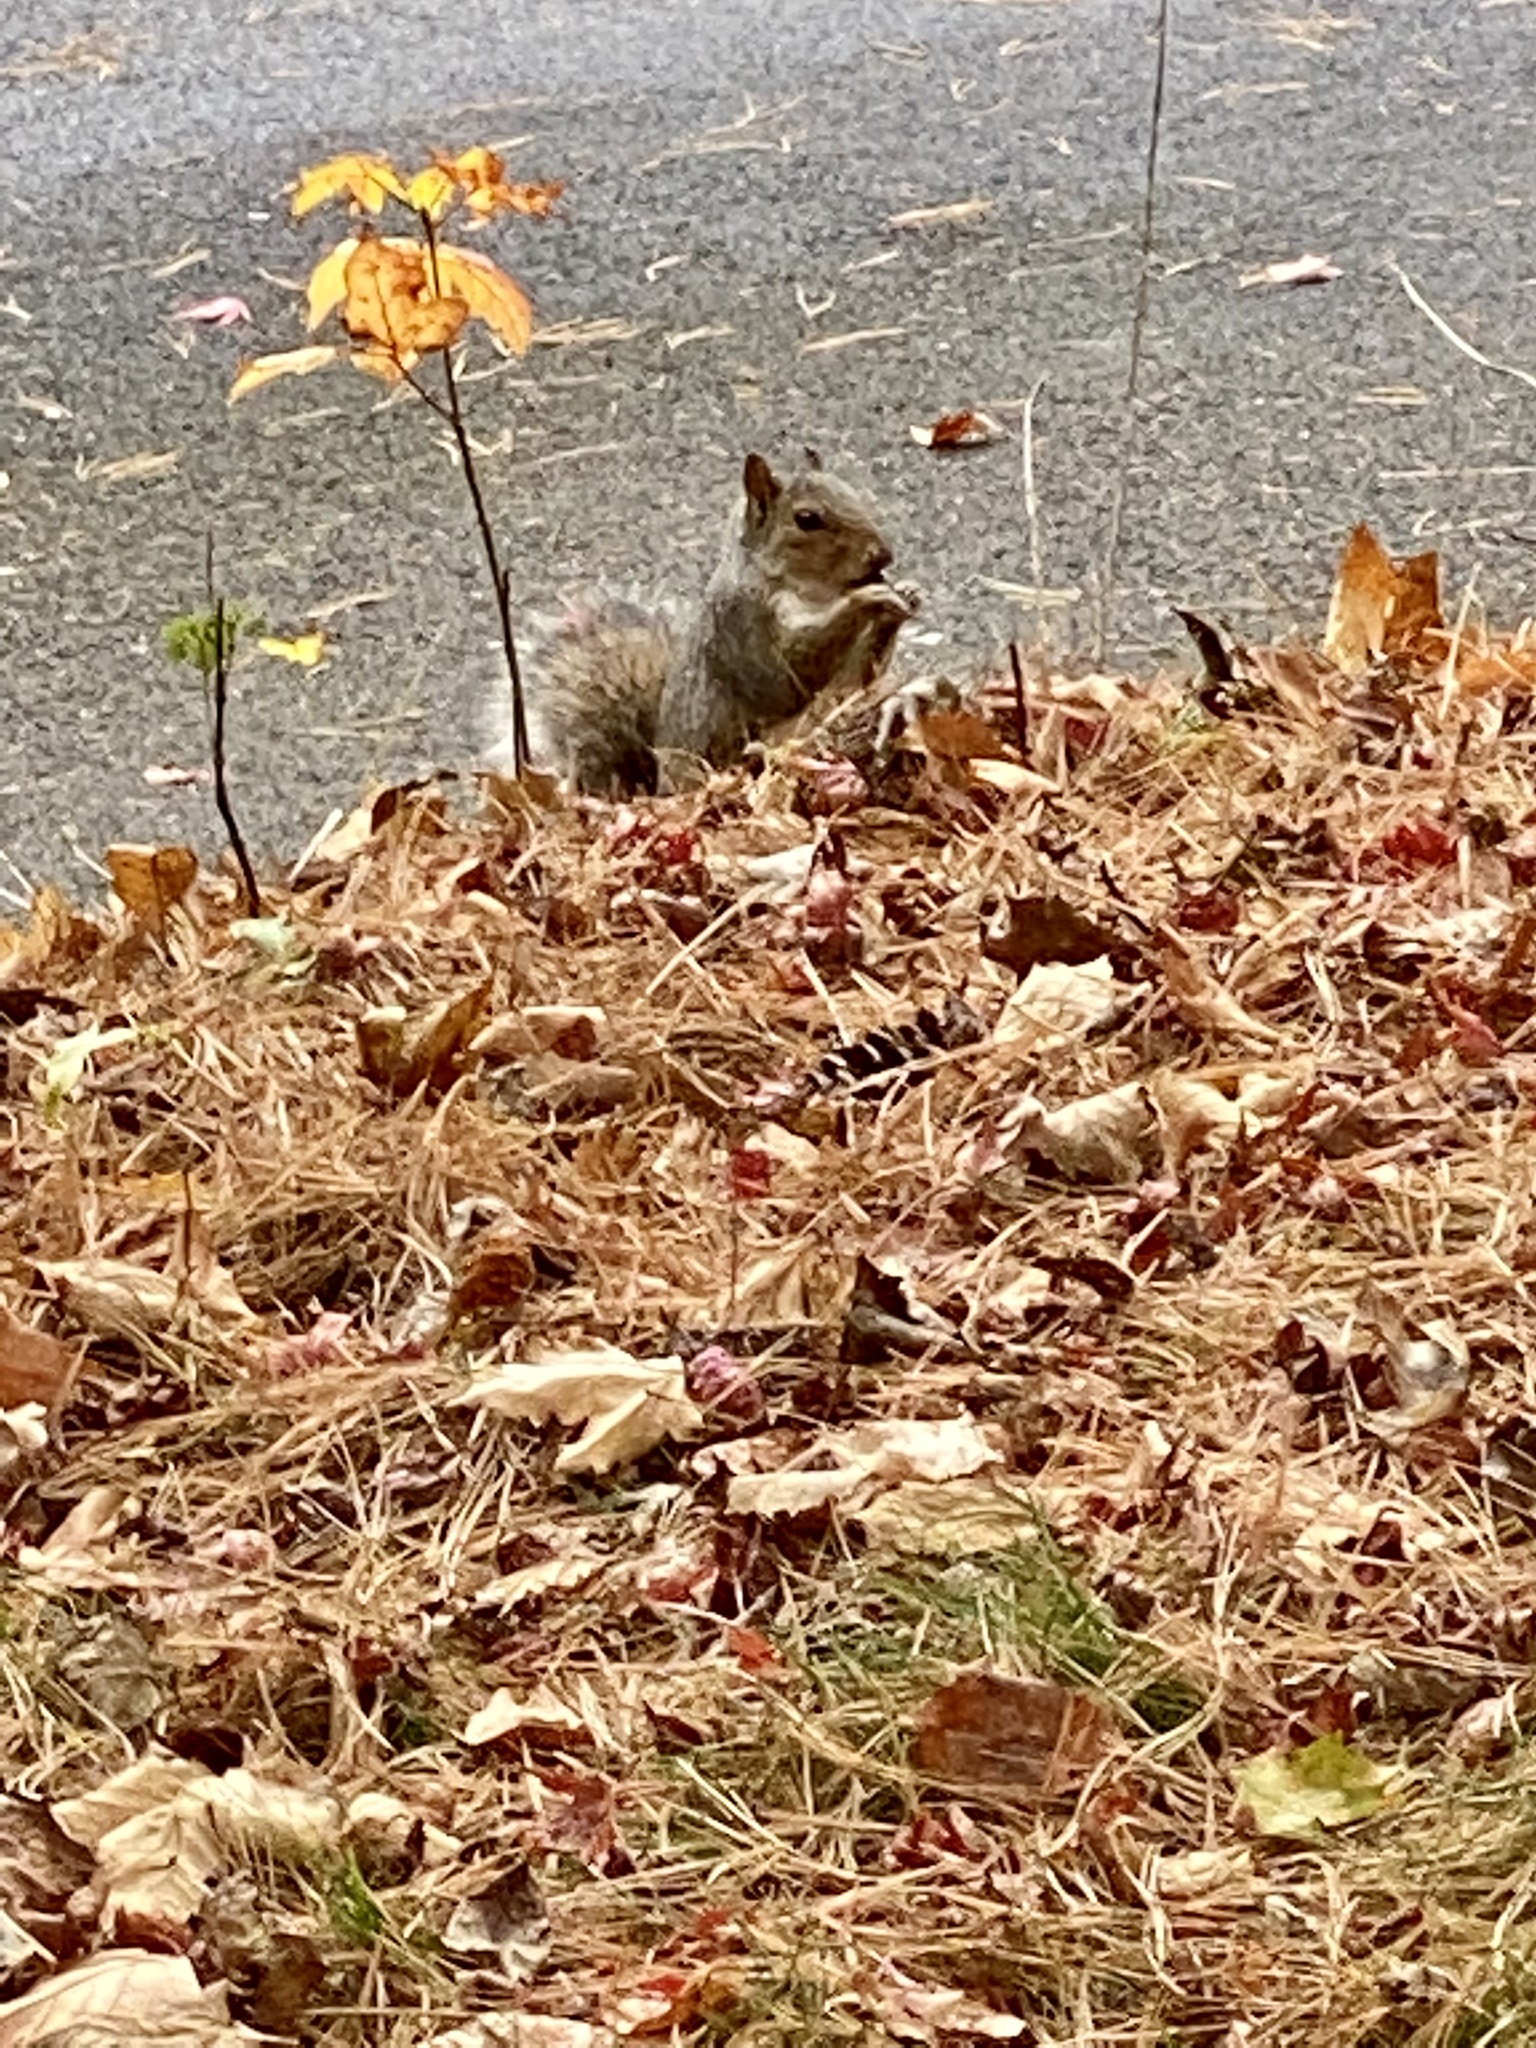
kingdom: Animalia
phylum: Chordata
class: Mammalia
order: Rodentia
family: Sciuridae
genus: Sciurus
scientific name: Sciurus carolinensis
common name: Eastern gray squirrel
